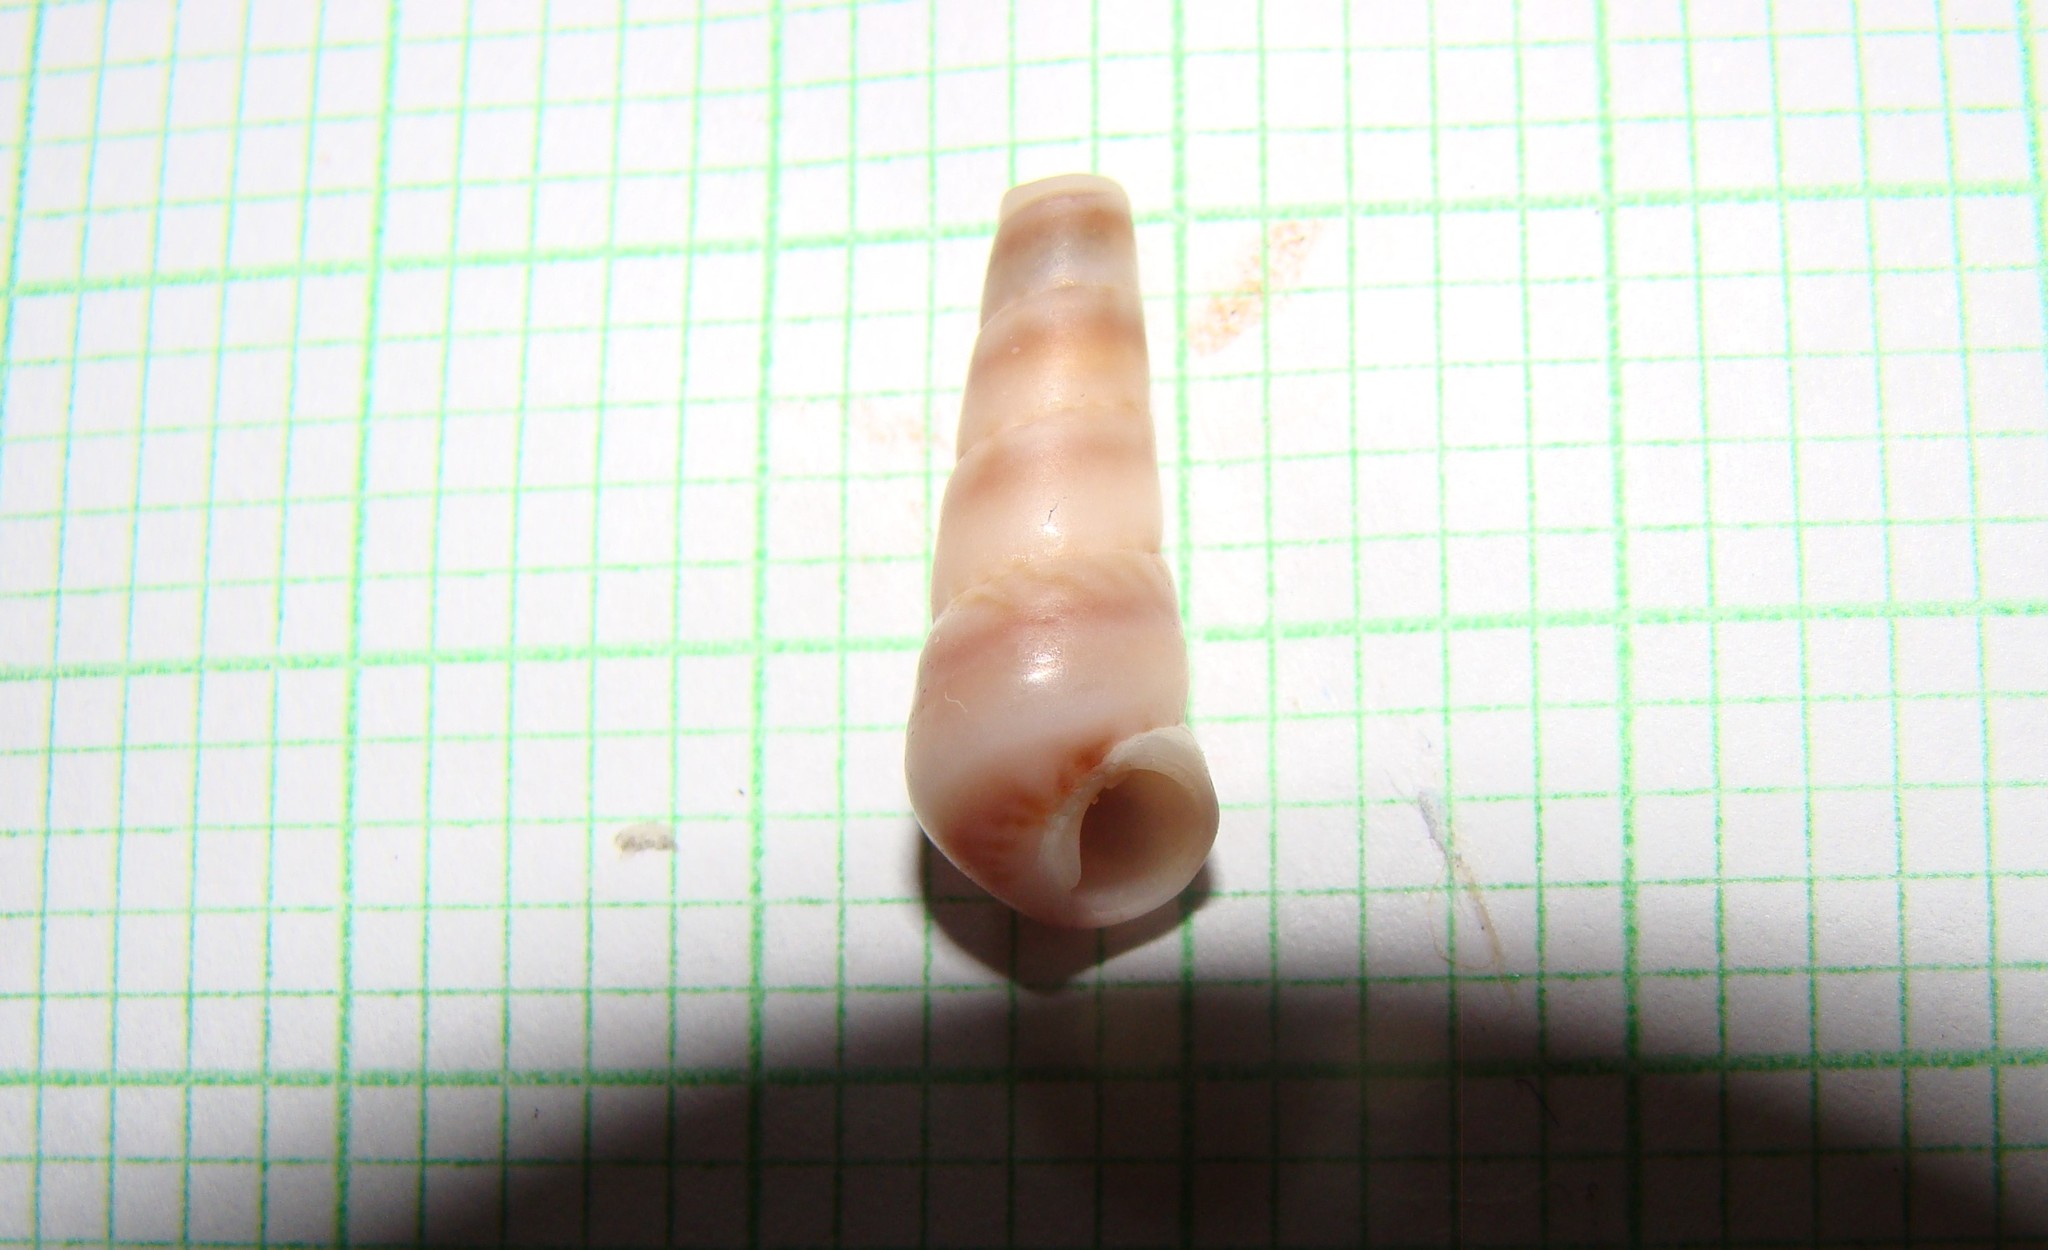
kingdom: Animalia
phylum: Mollusca
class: Gastropoda
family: Turritellidae
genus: Stiracolpus
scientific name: Stiracolpus pagoda
